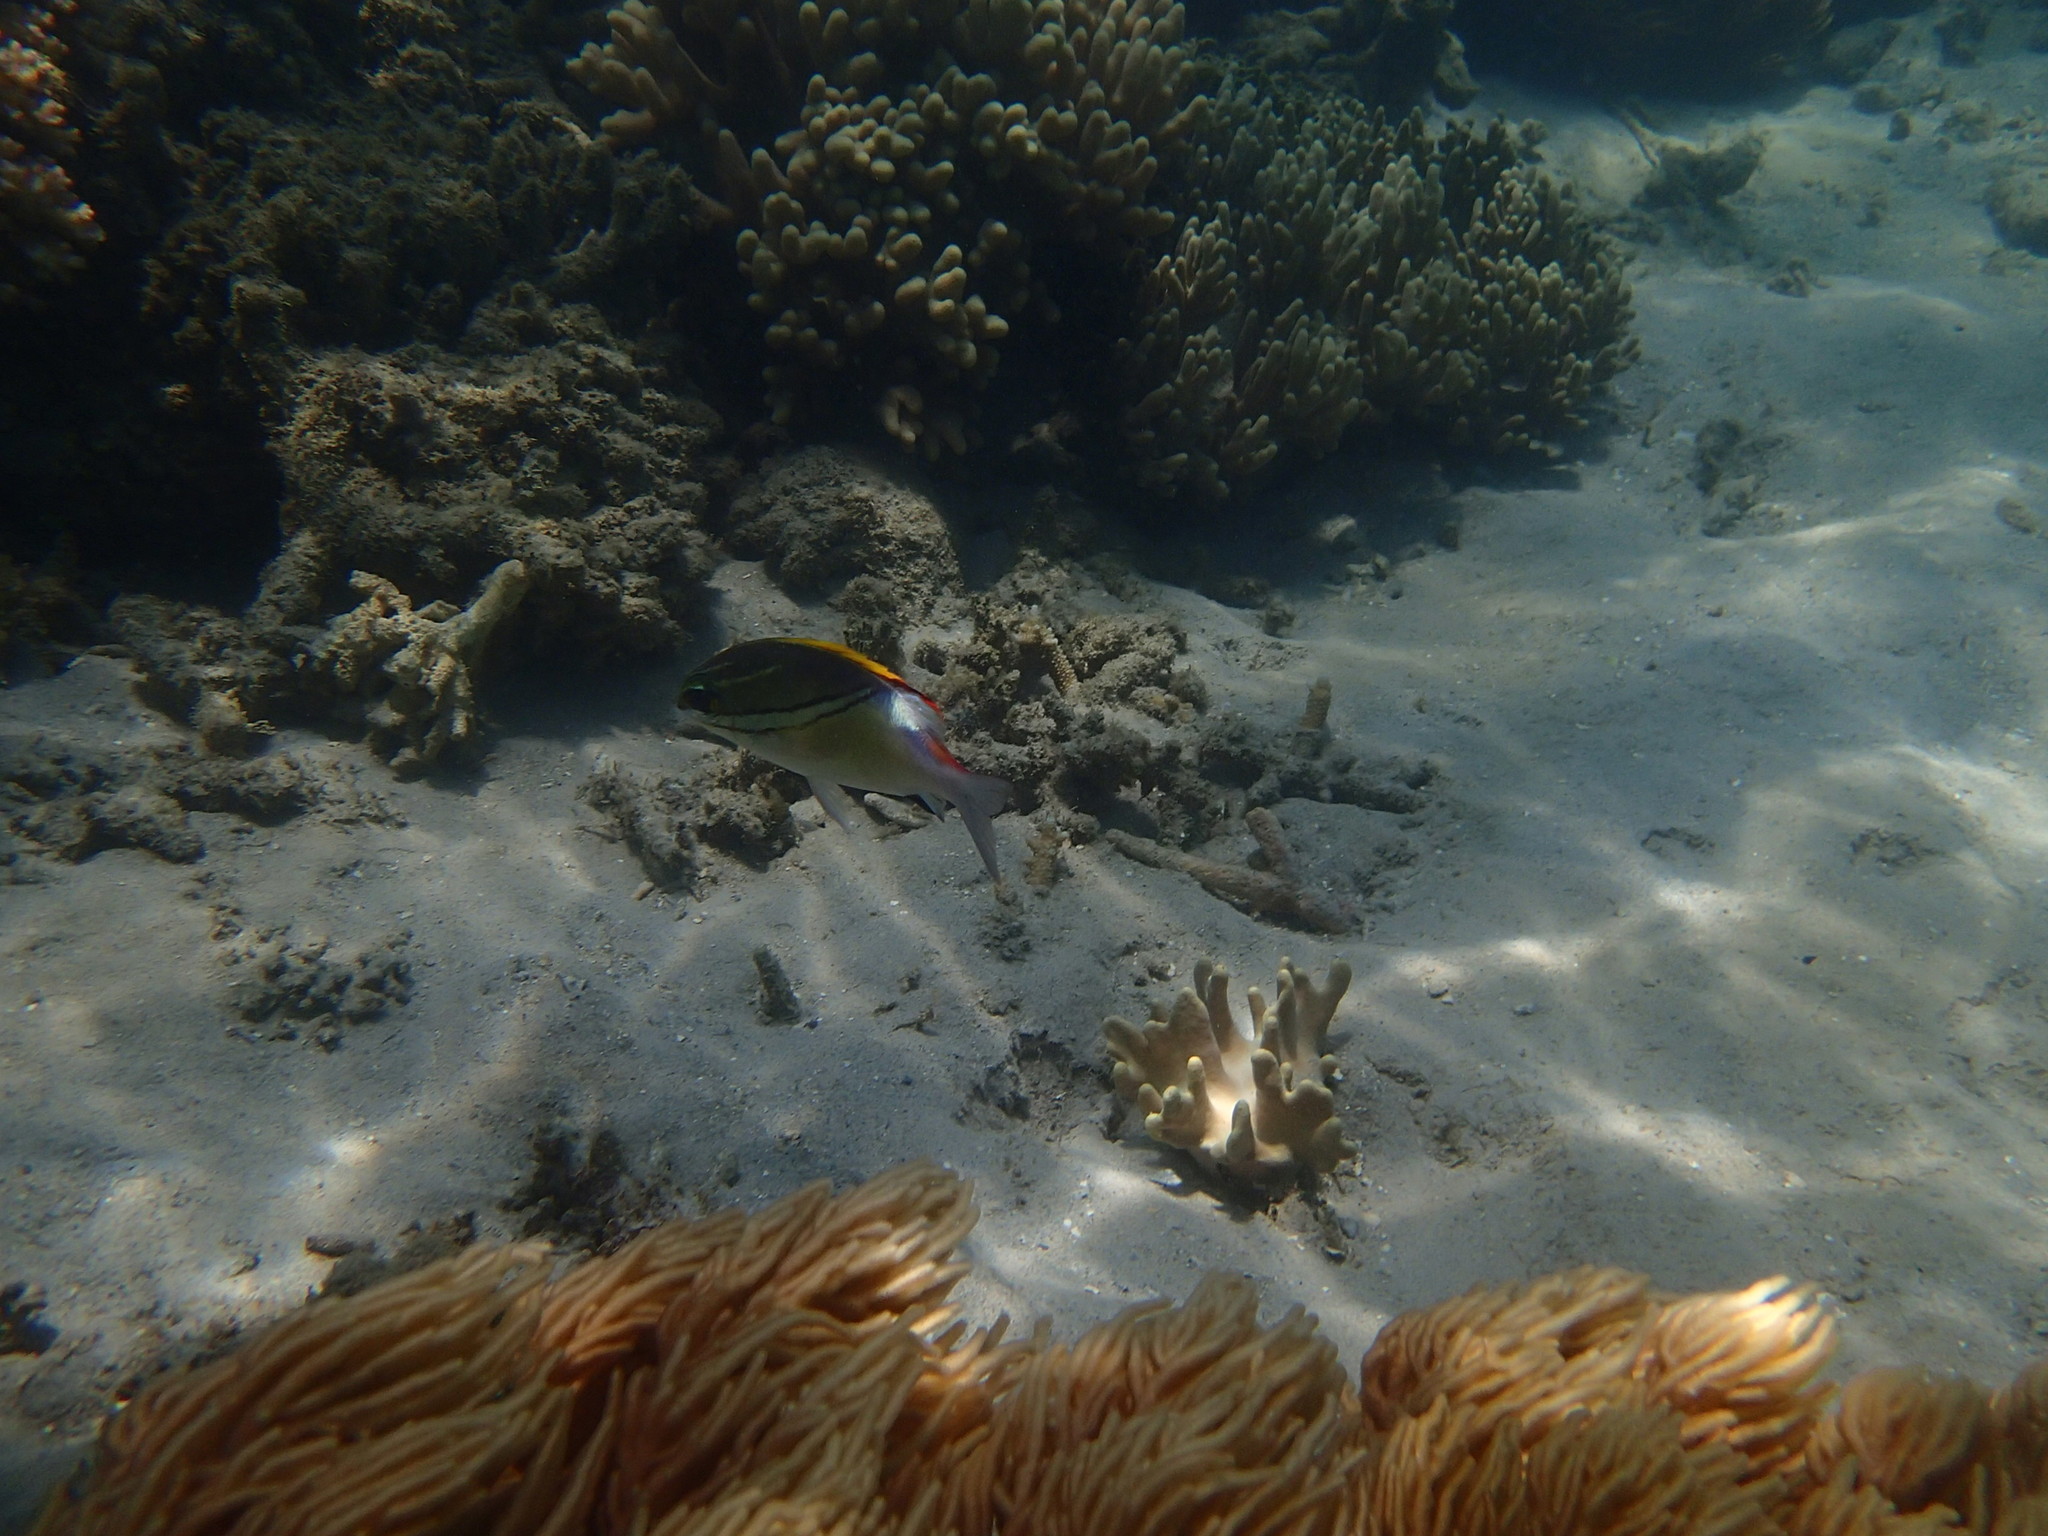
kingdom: Animalia
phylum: Chordata
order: Perciformes
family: Nemipteridae
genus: Scolopsis
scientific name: Scolopsis bilineata
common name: Two-lined monocle bream
